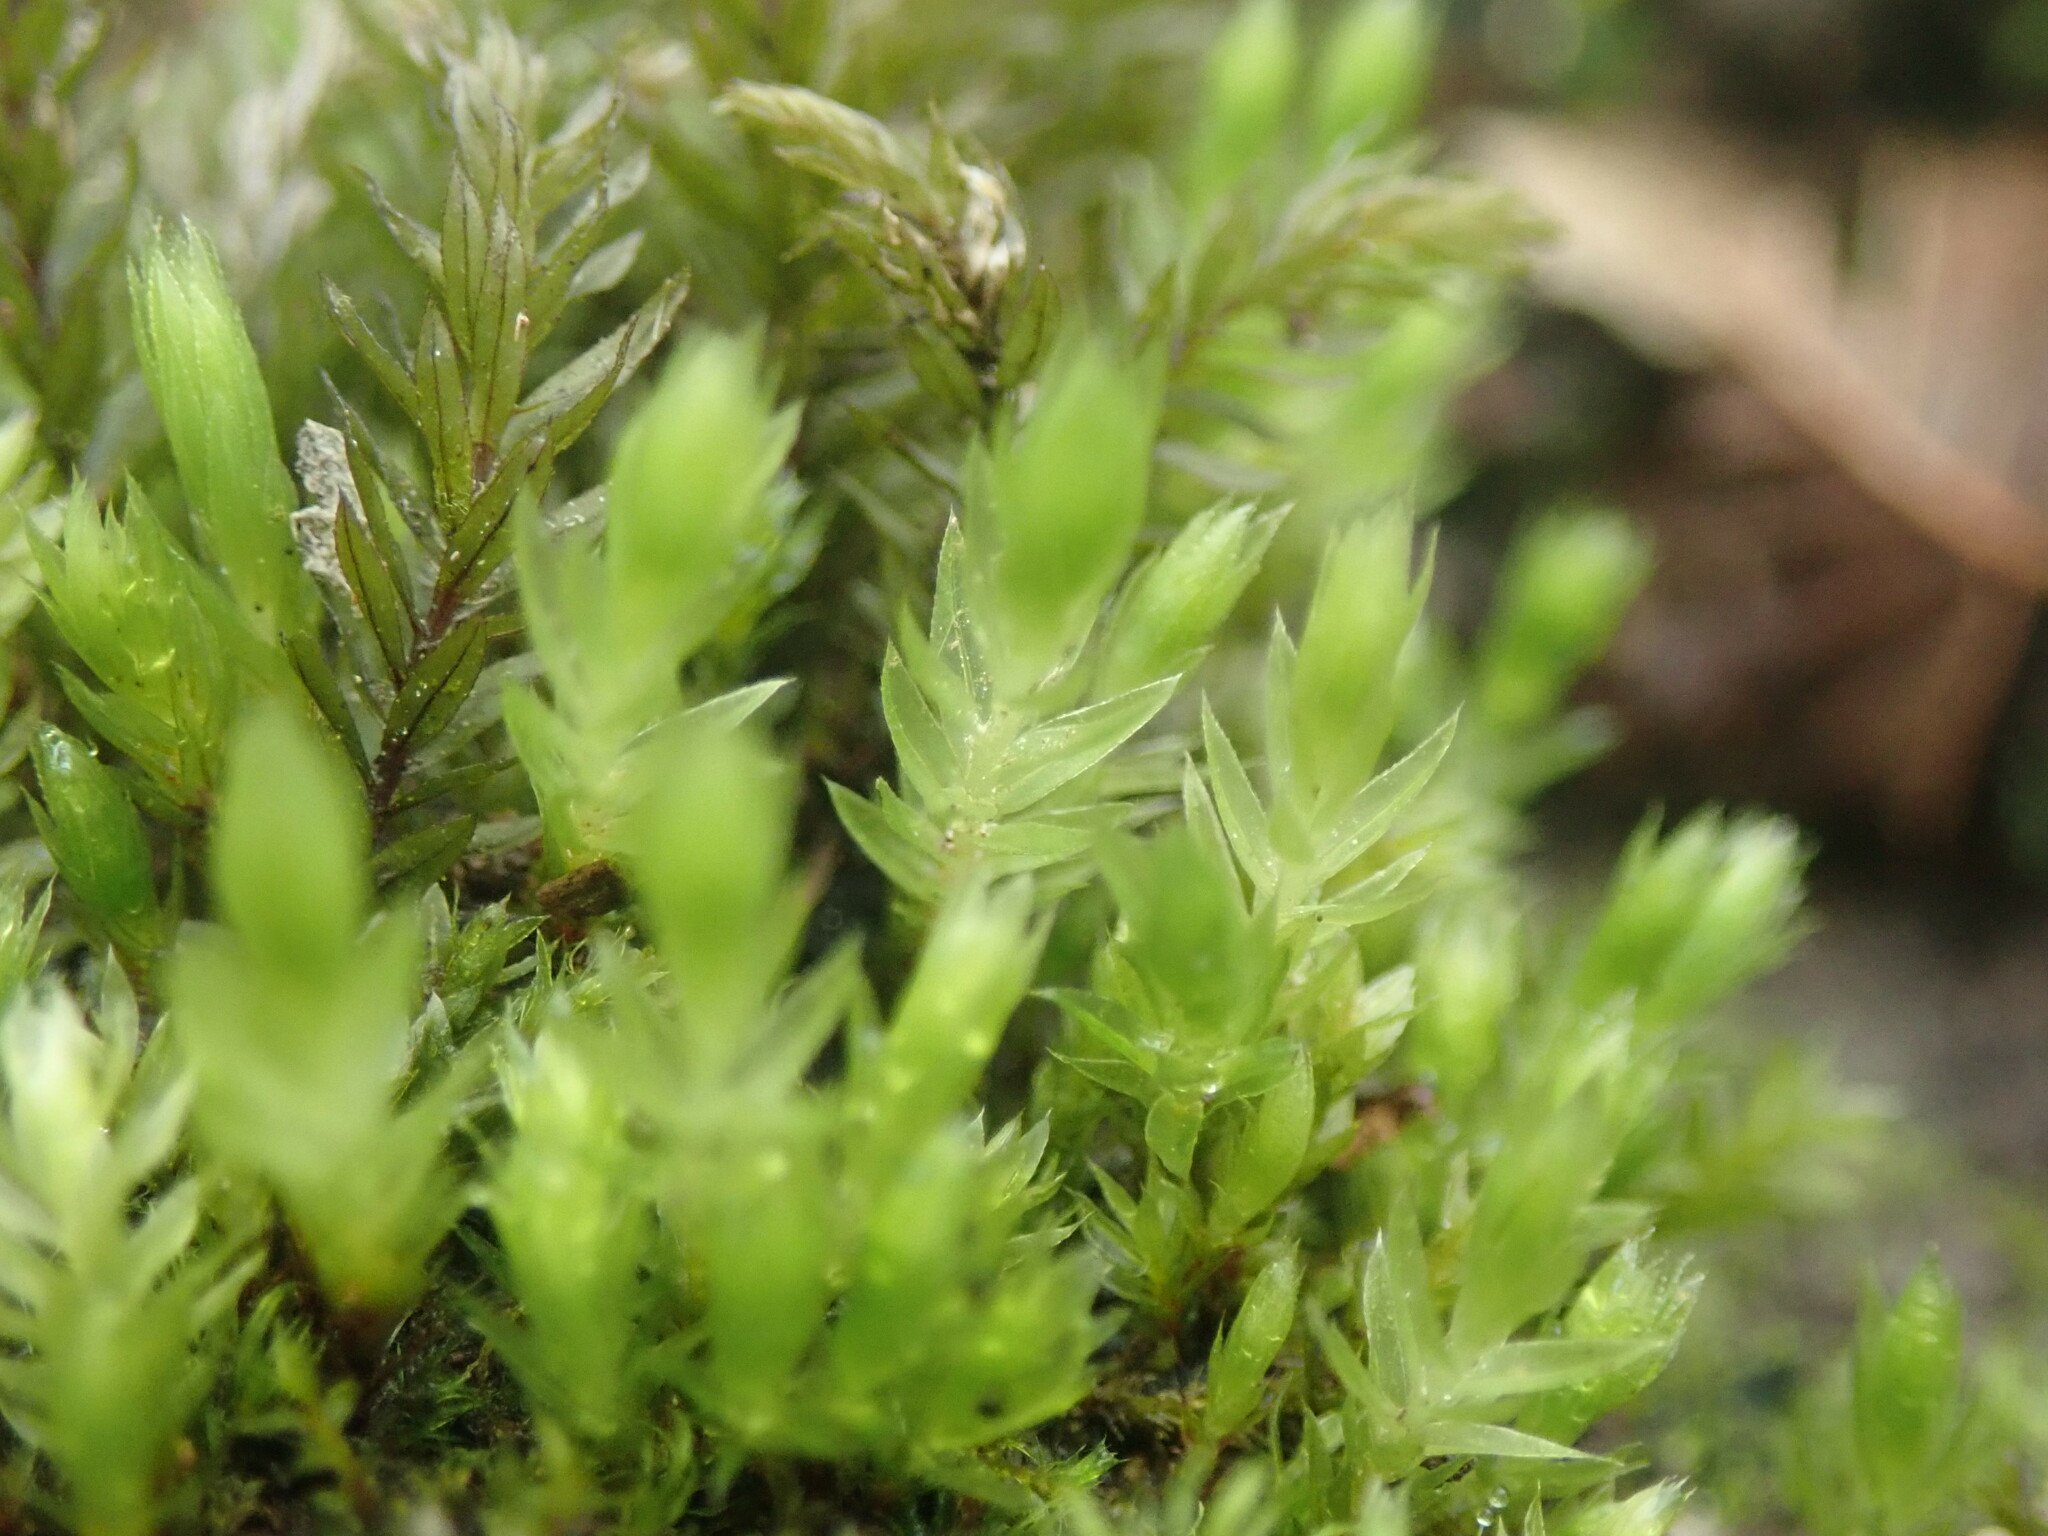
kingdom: Plantae
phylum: Bryophyta
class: Bryopsida
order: Bryales
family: Mniaceae
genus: Mnium
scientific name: Mnium hornum
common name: Swan's-neck leafy moss
